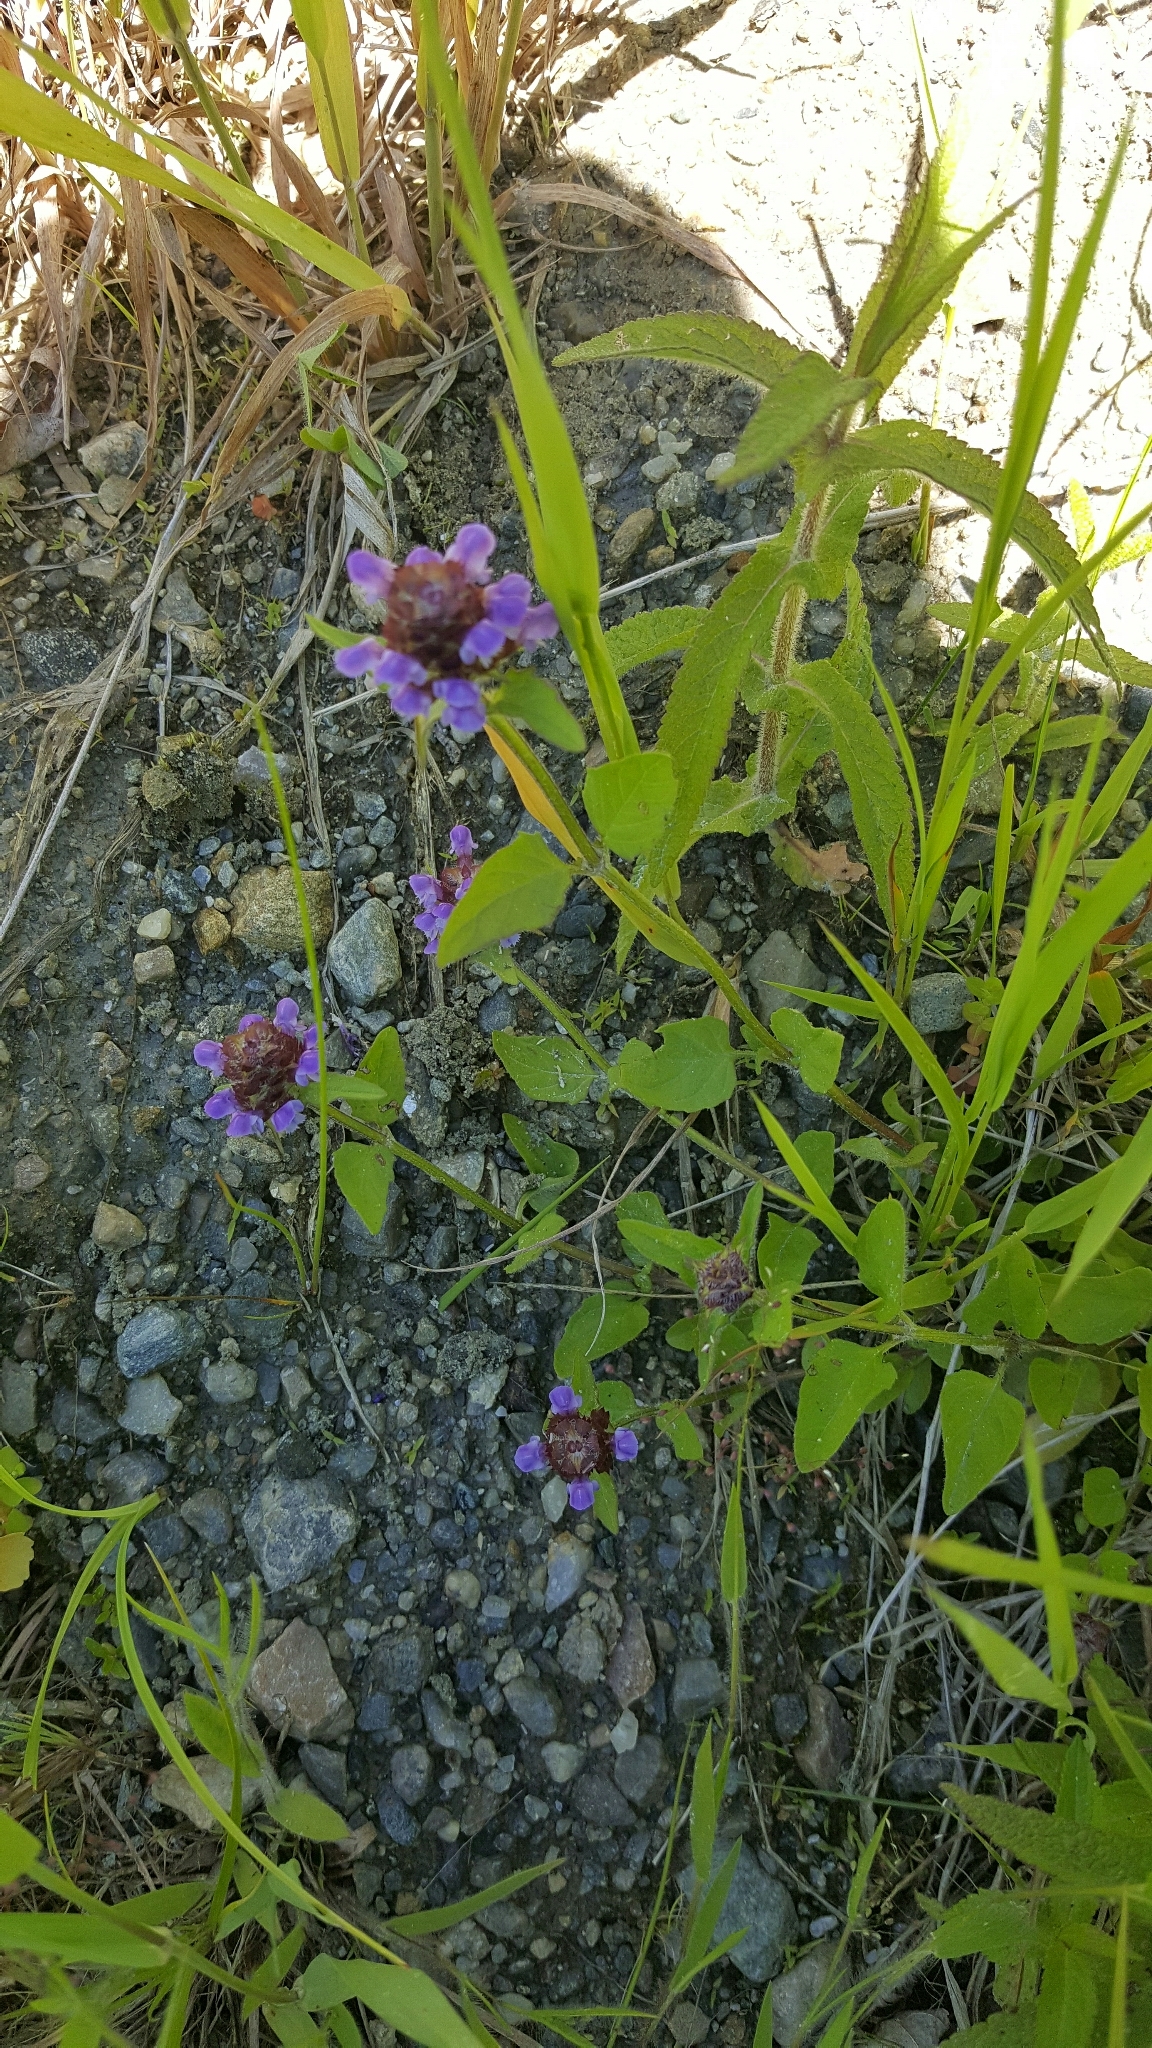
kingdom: Plantae
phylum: Tracheophyta
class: Magnoliopsida
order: Lamiales
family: Lamiaceae
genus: Prunella
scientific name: Prunella vulgaris
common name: Heal-all
